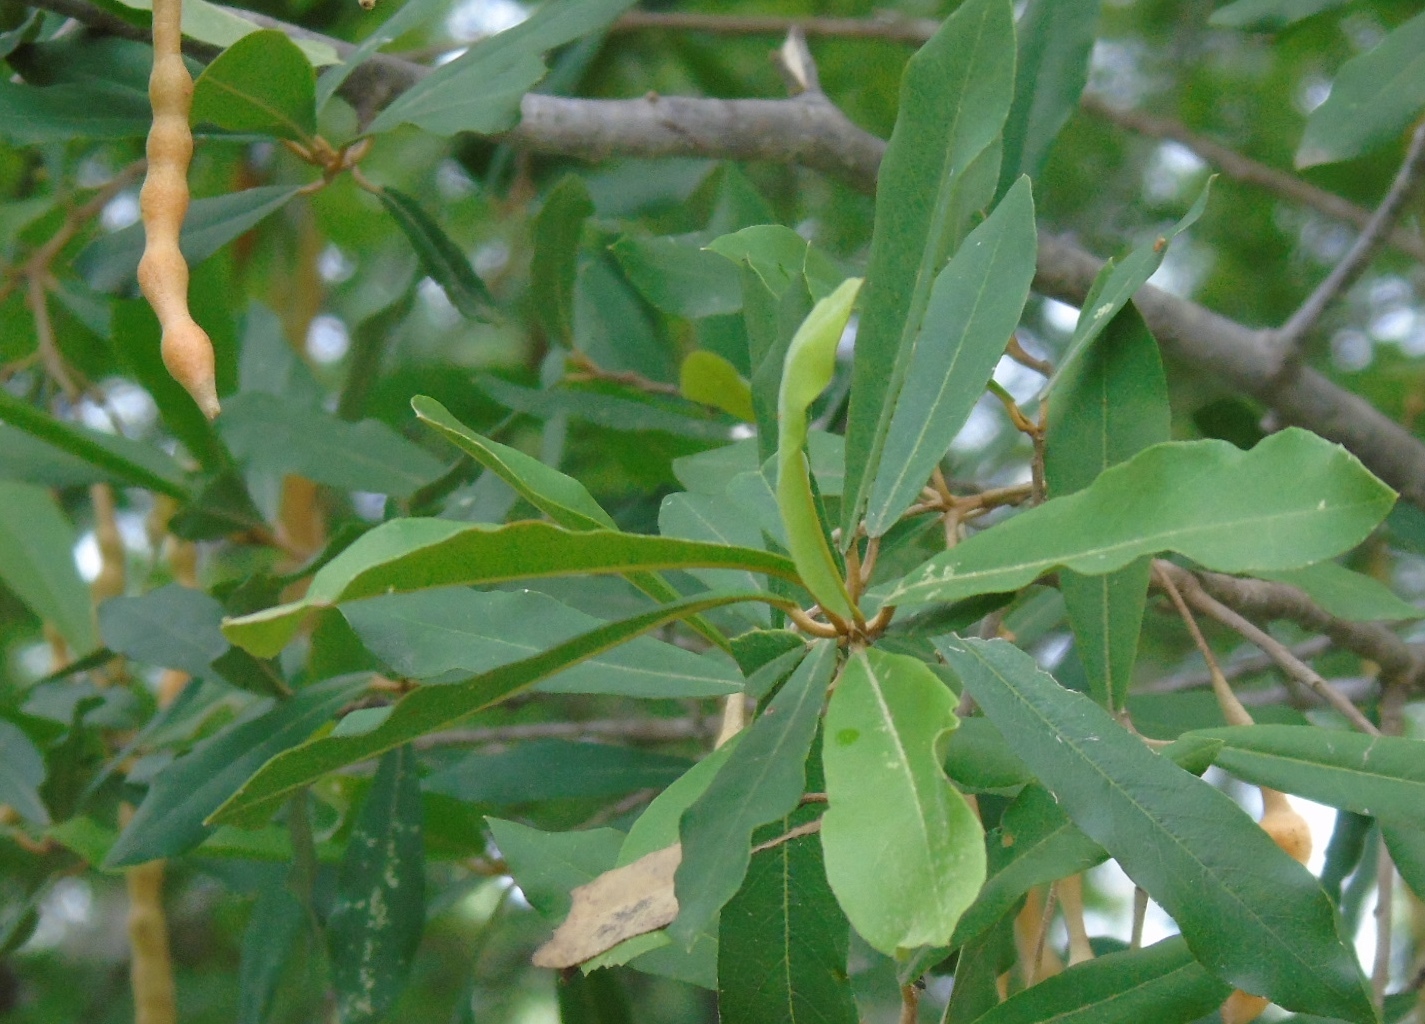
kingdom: Plantae
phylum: Tracheophyta
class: Magnoliopsida
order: Brassicales
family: Capparaceae
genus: Quadrella
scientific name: Quadrella indica
